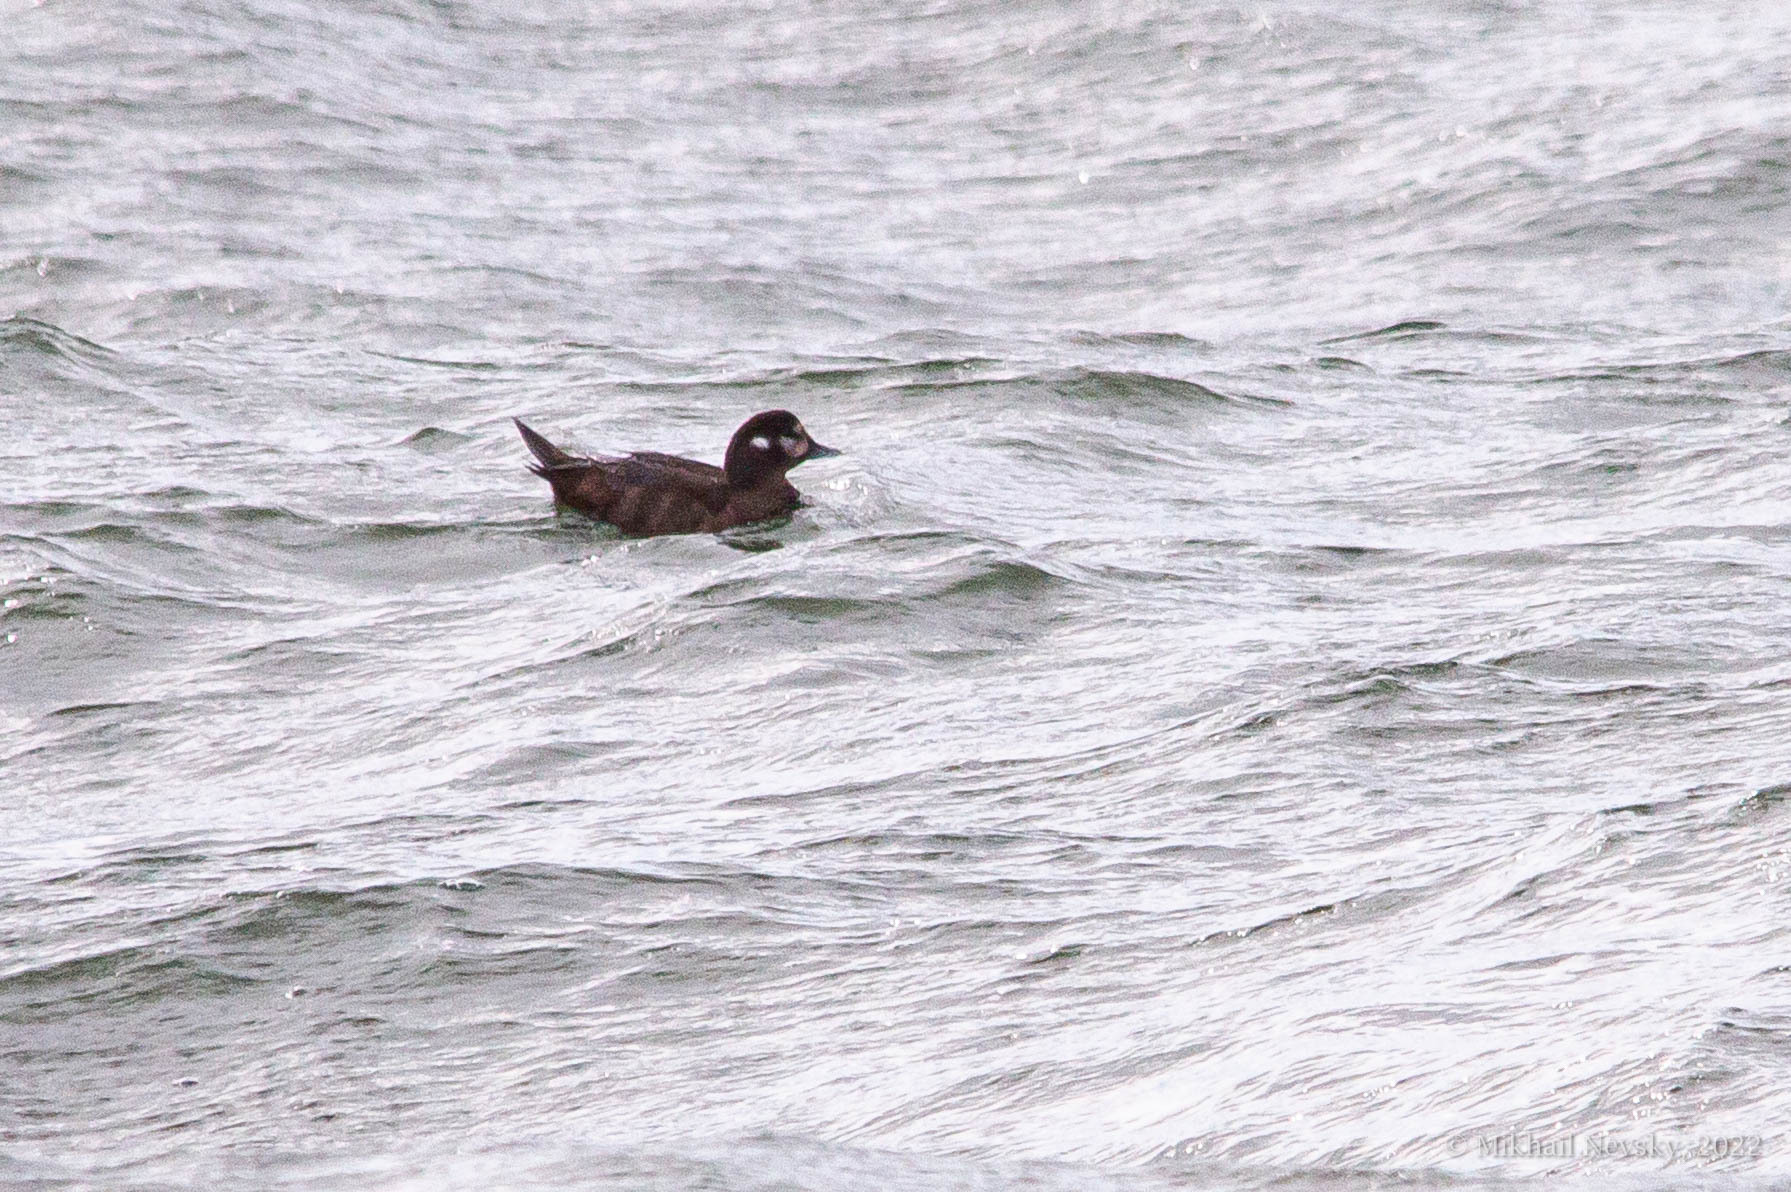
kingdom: Animalia
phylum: Chordata
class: Aves
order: Anseriformes
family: Anatidae
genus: Histrionicus
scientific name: Histrionicus histrionicus
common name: Harlequin duck
